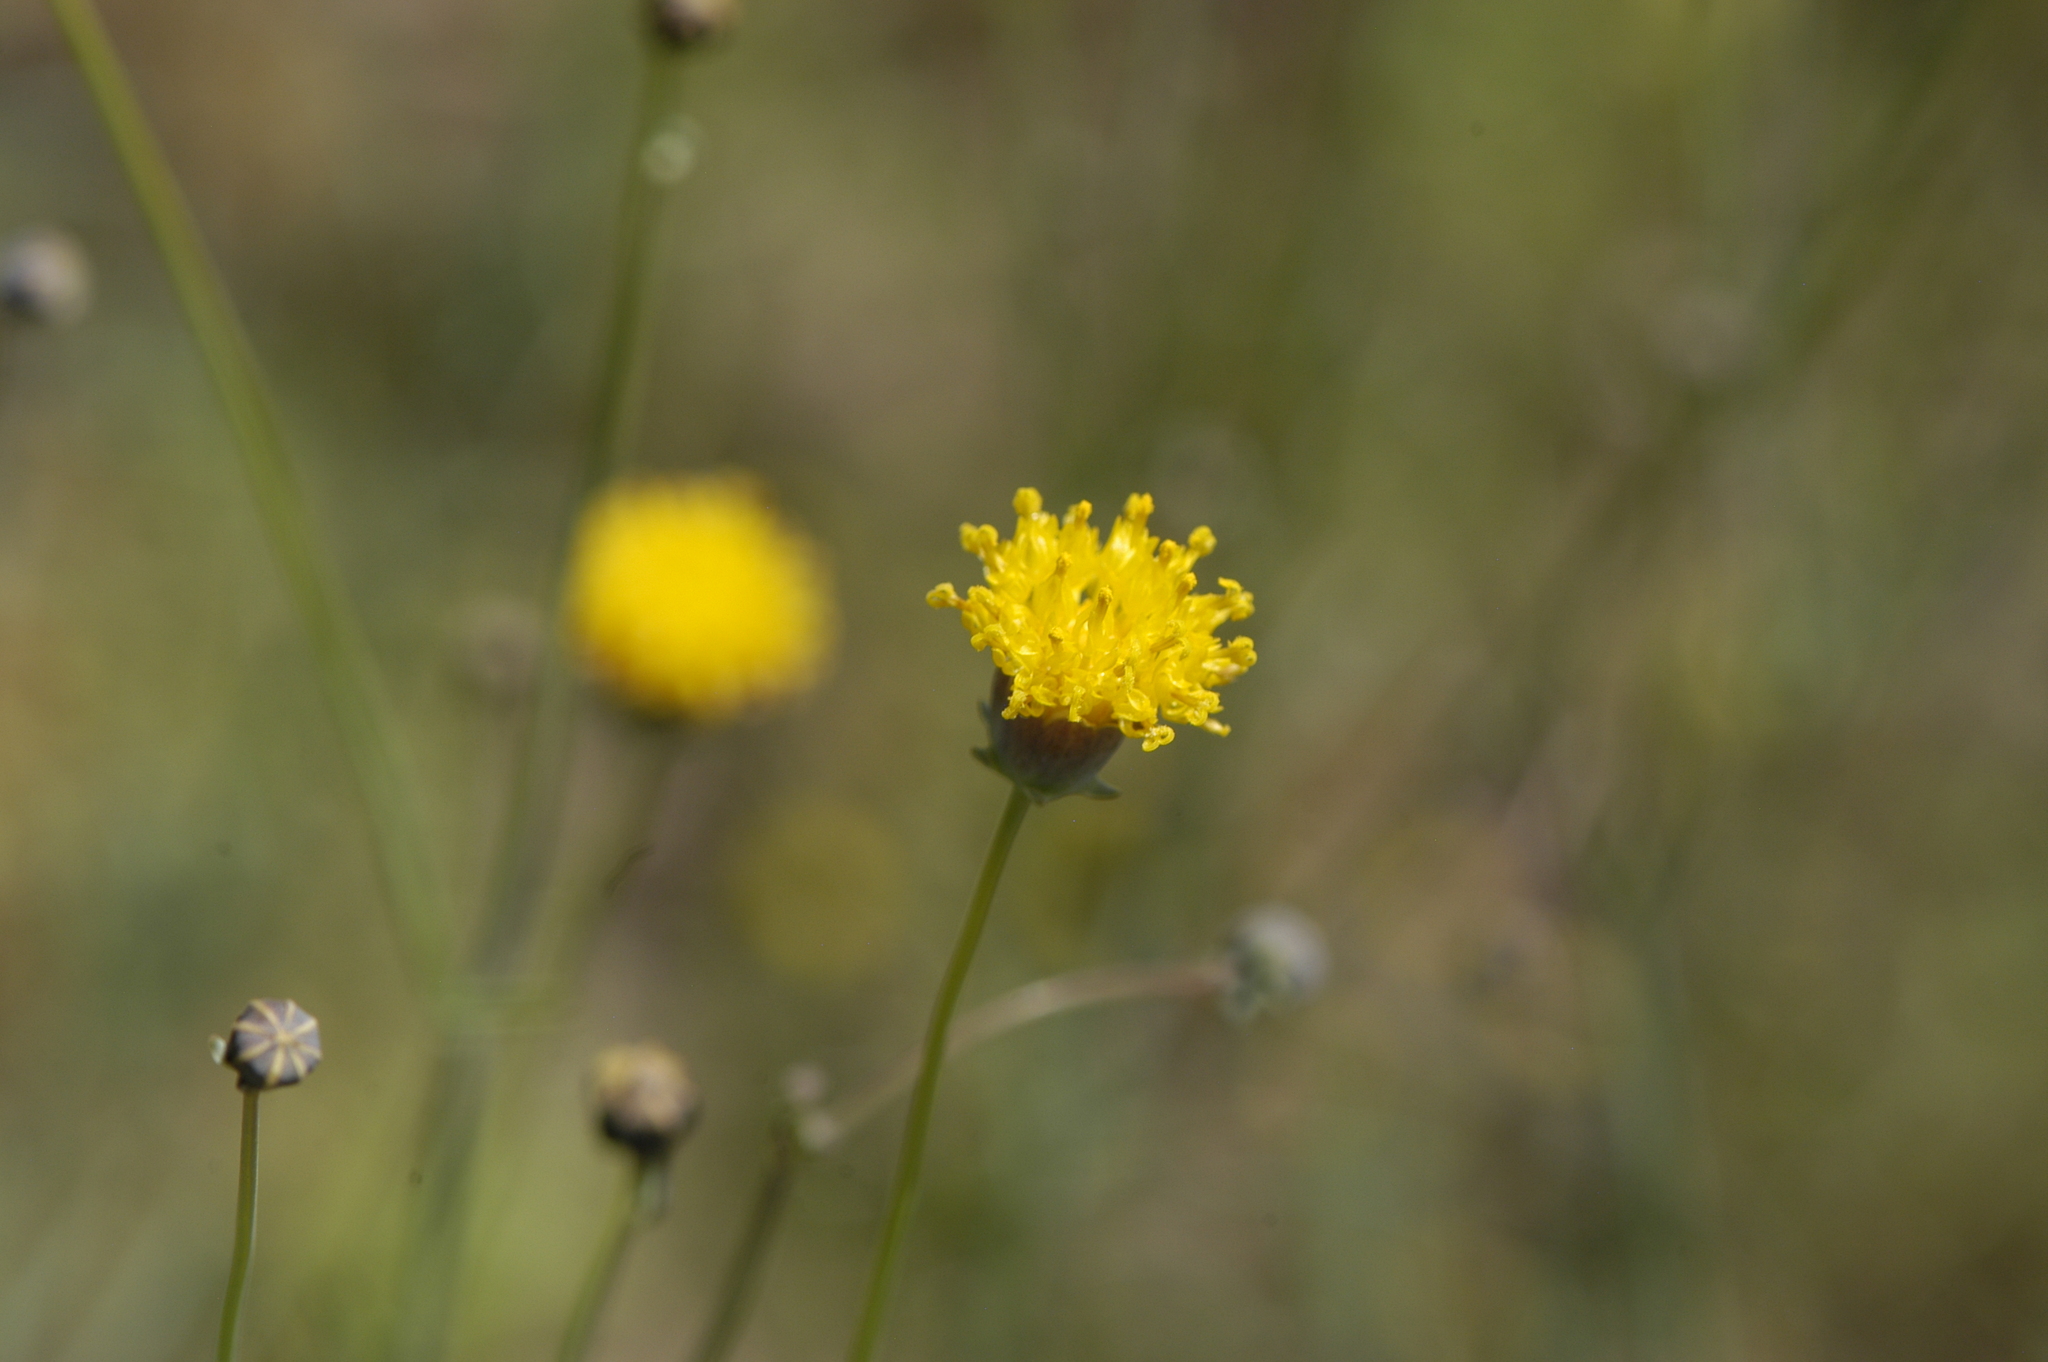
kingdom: Plantae
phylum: Tracheophyta
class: Magnoliopsida
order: Asterales
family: Asteraceae
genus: Thelesperma
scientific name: Thelesperma megapotamicum
